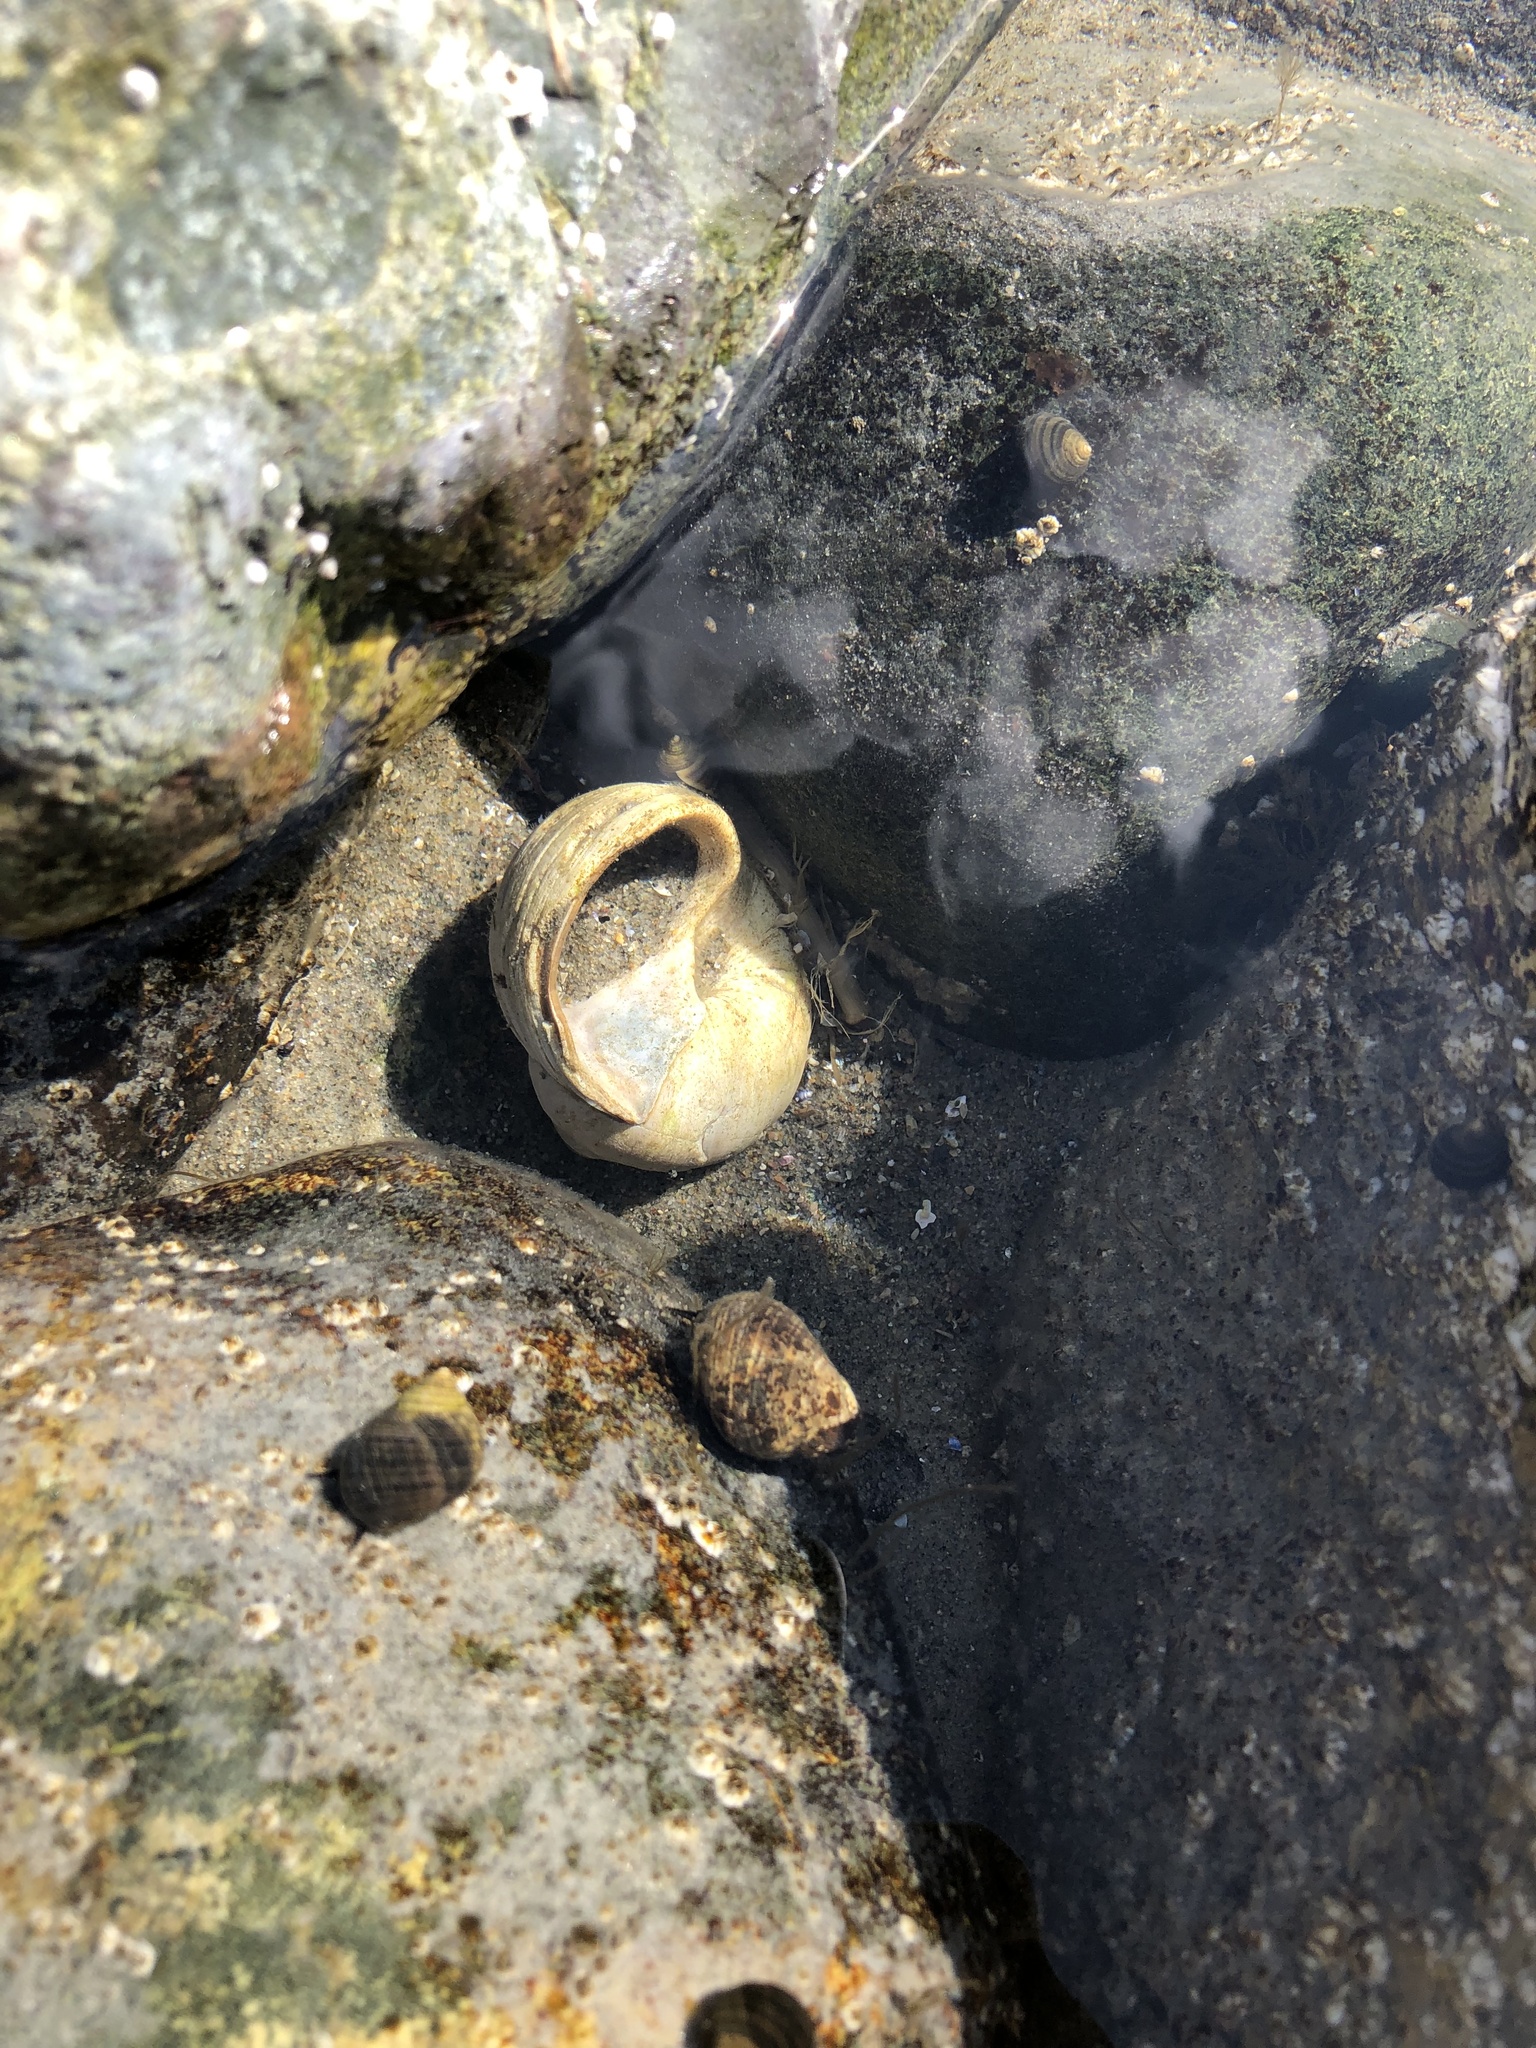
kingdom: Animalia
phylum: Mollusca
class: Gastropoda
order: Littorinimorpha
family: Naticidae
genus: Euspira
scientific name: Euspira heros
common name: Common northern moonsnail
